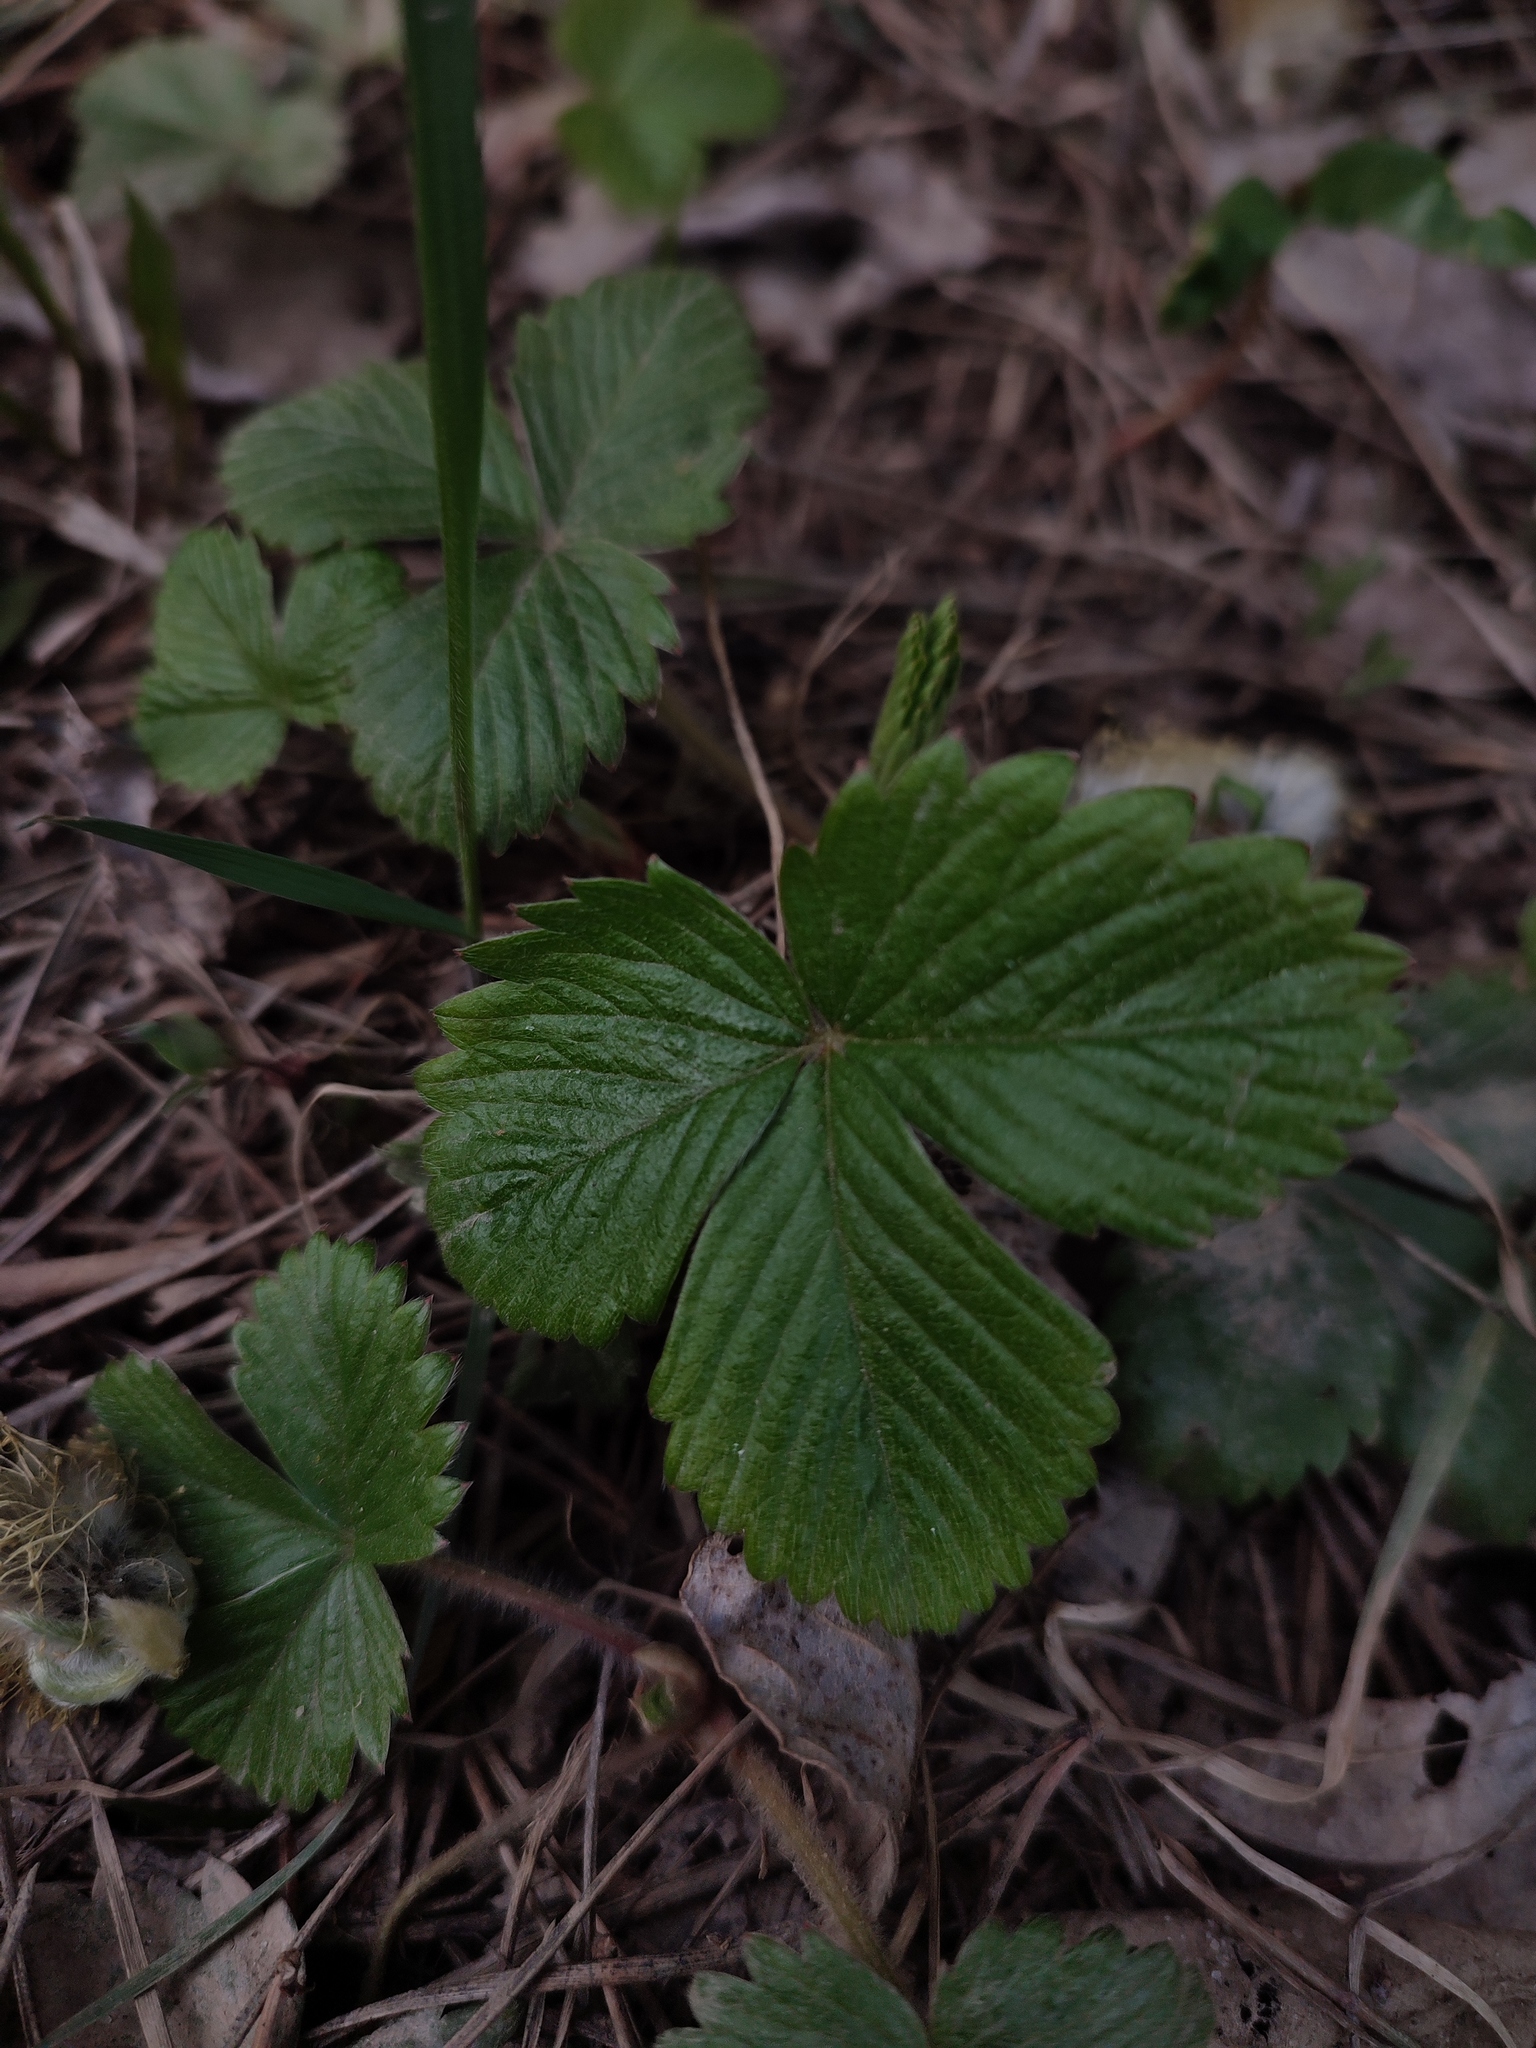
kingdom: Plantae
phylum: Tracheophyta
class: Magnoliopsida
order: Rosales
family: Rosaceae
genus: Fragaria
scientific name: Fragaria vesca
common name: Wild strawberry
